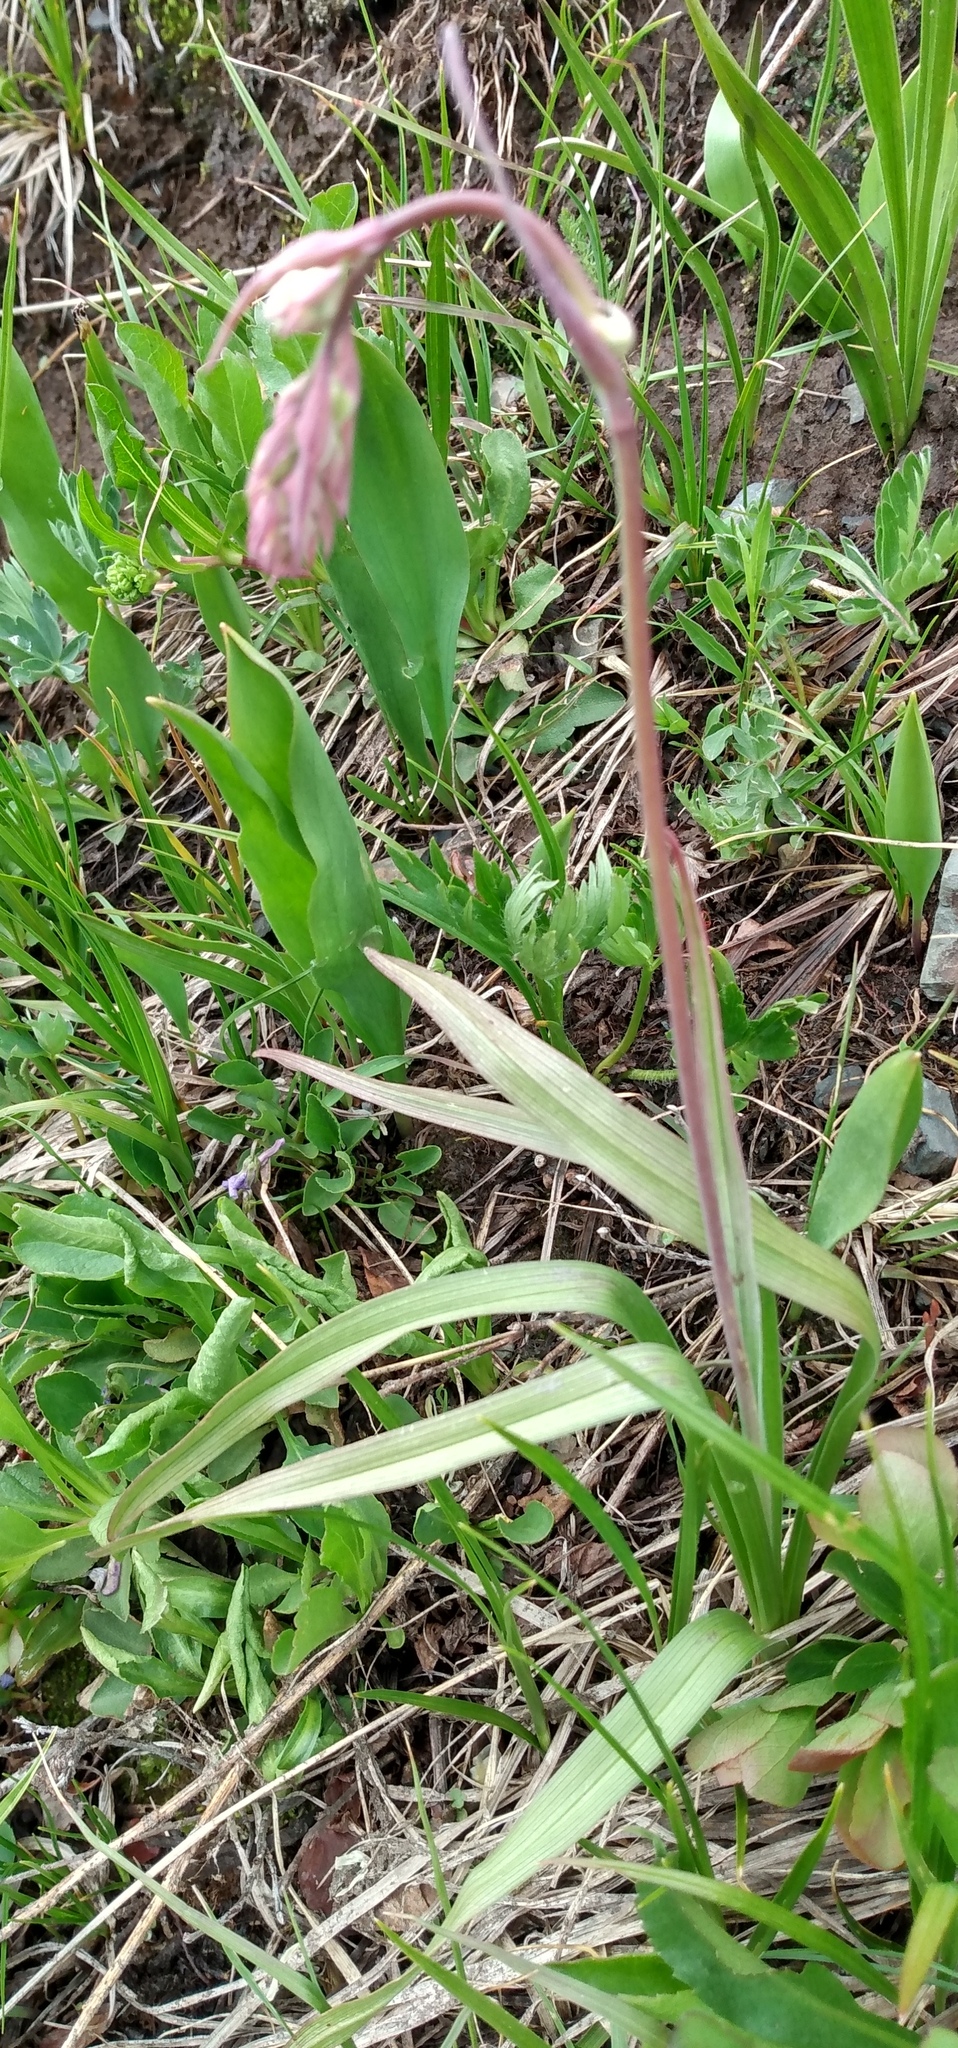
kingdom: Plantae
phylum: Tracheophyta
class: Liliopsida
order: Liliales
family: Melanthiaceae
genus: Anticlea
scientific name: Anticlea elegans
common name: Mountain death camas
